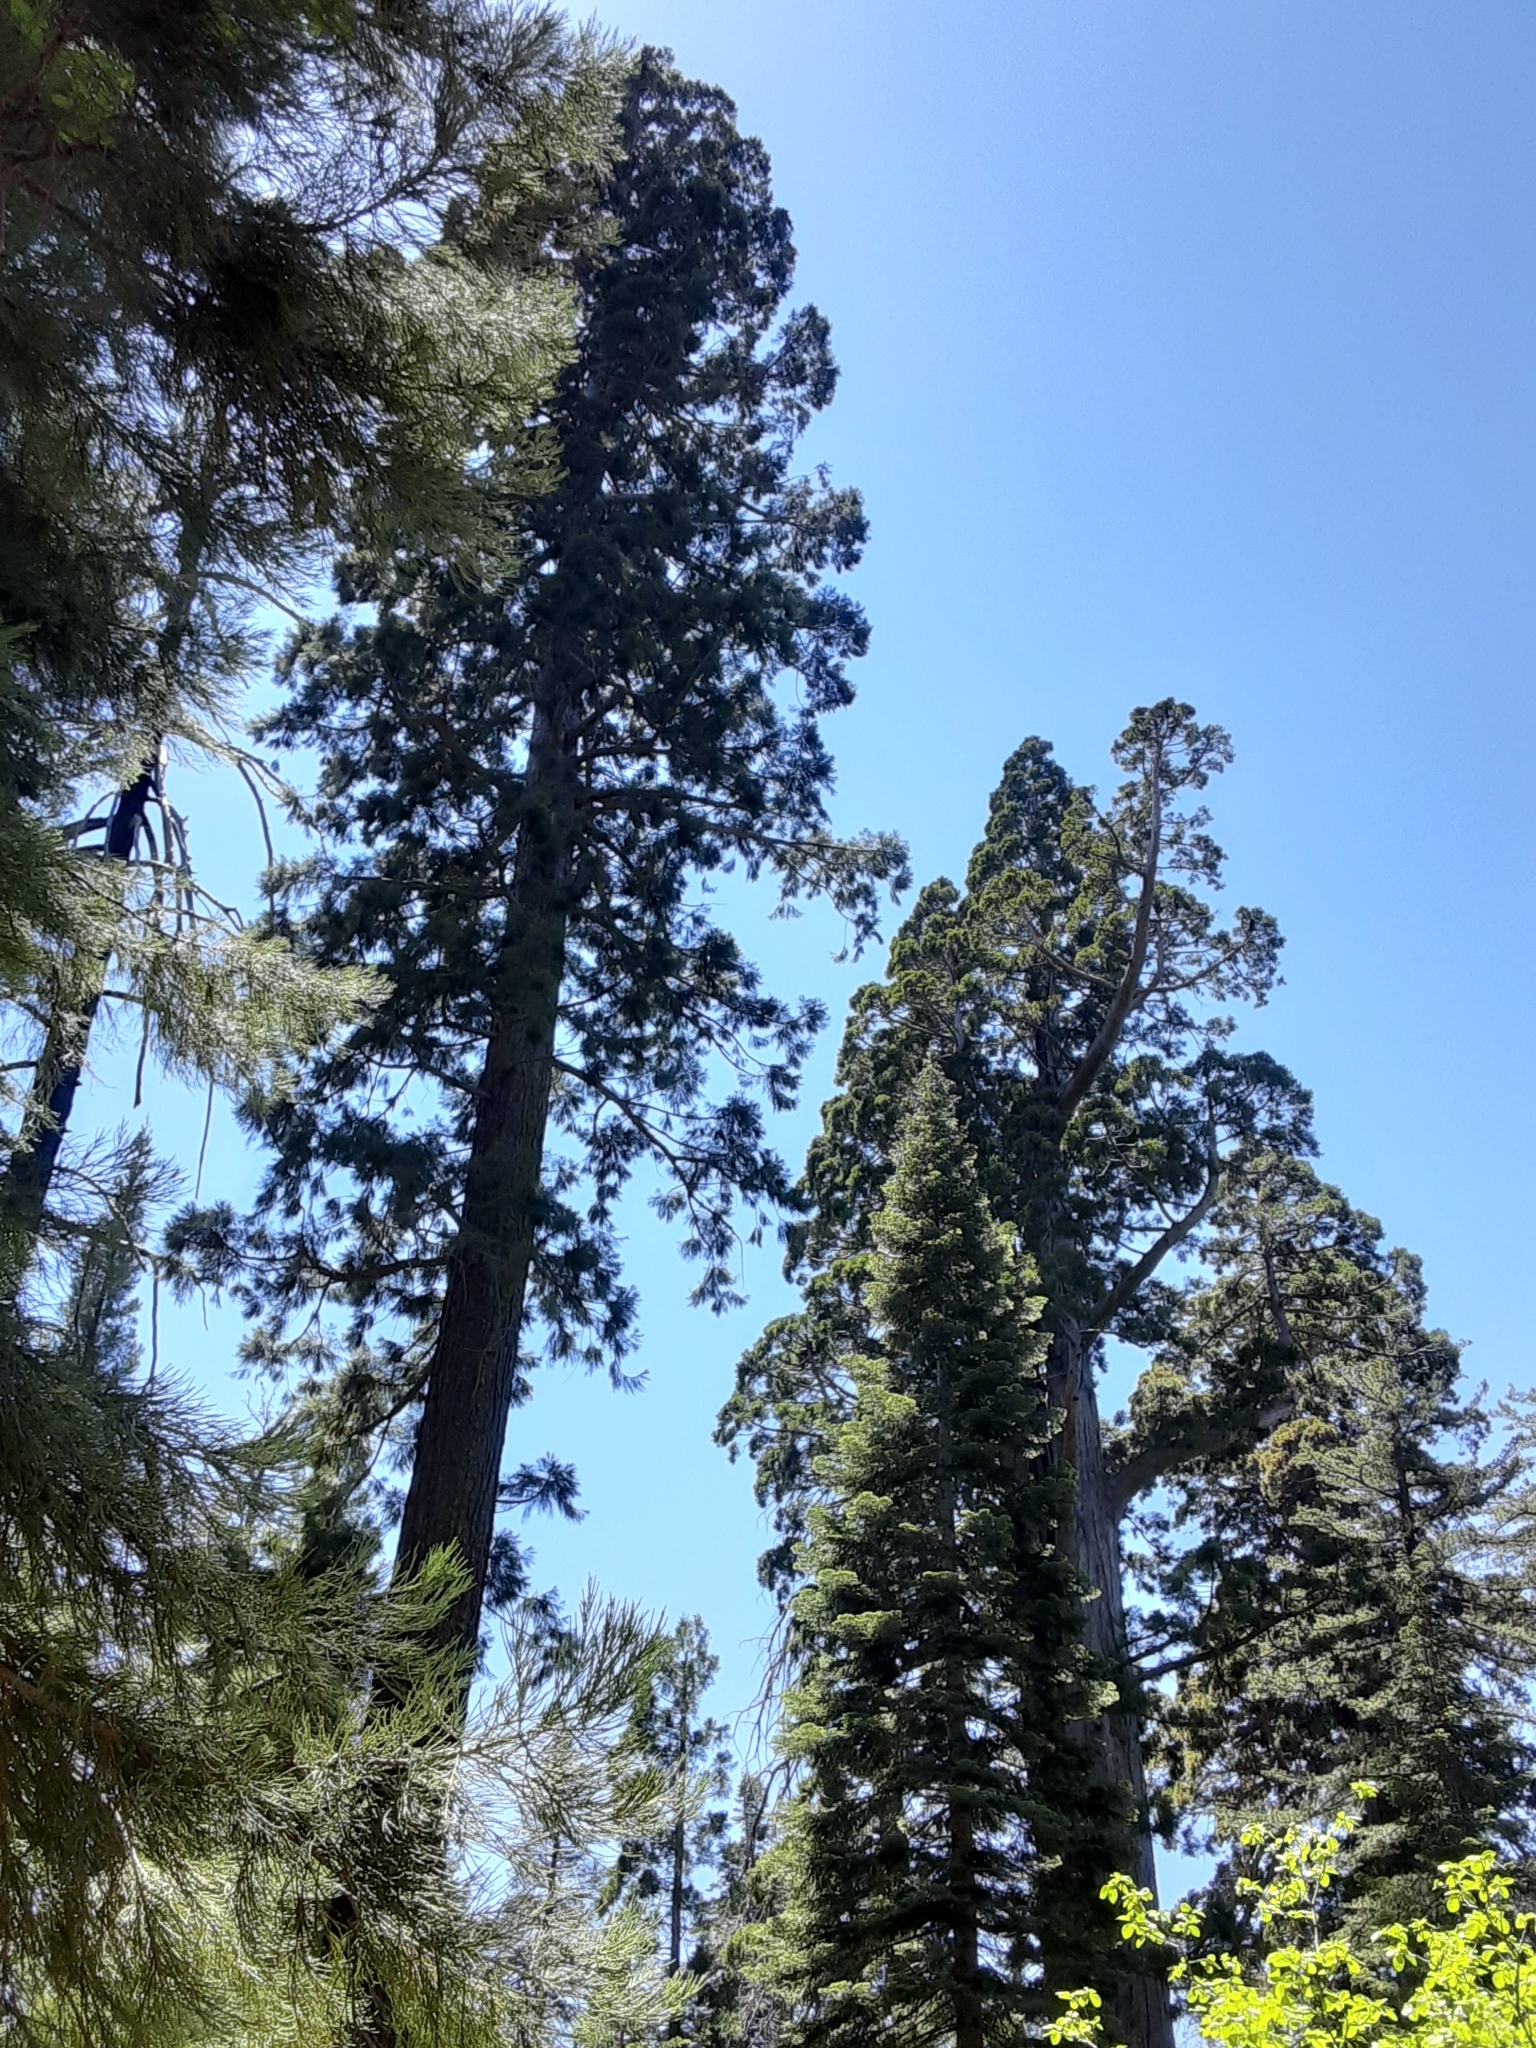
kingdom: Plantae
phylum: Tracheophyta
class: Pinopsida
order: Pinales
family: Cupressaceae
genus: Sequoiadendron
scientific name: Sequoiadendron giganteum
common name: Wellingtonia
